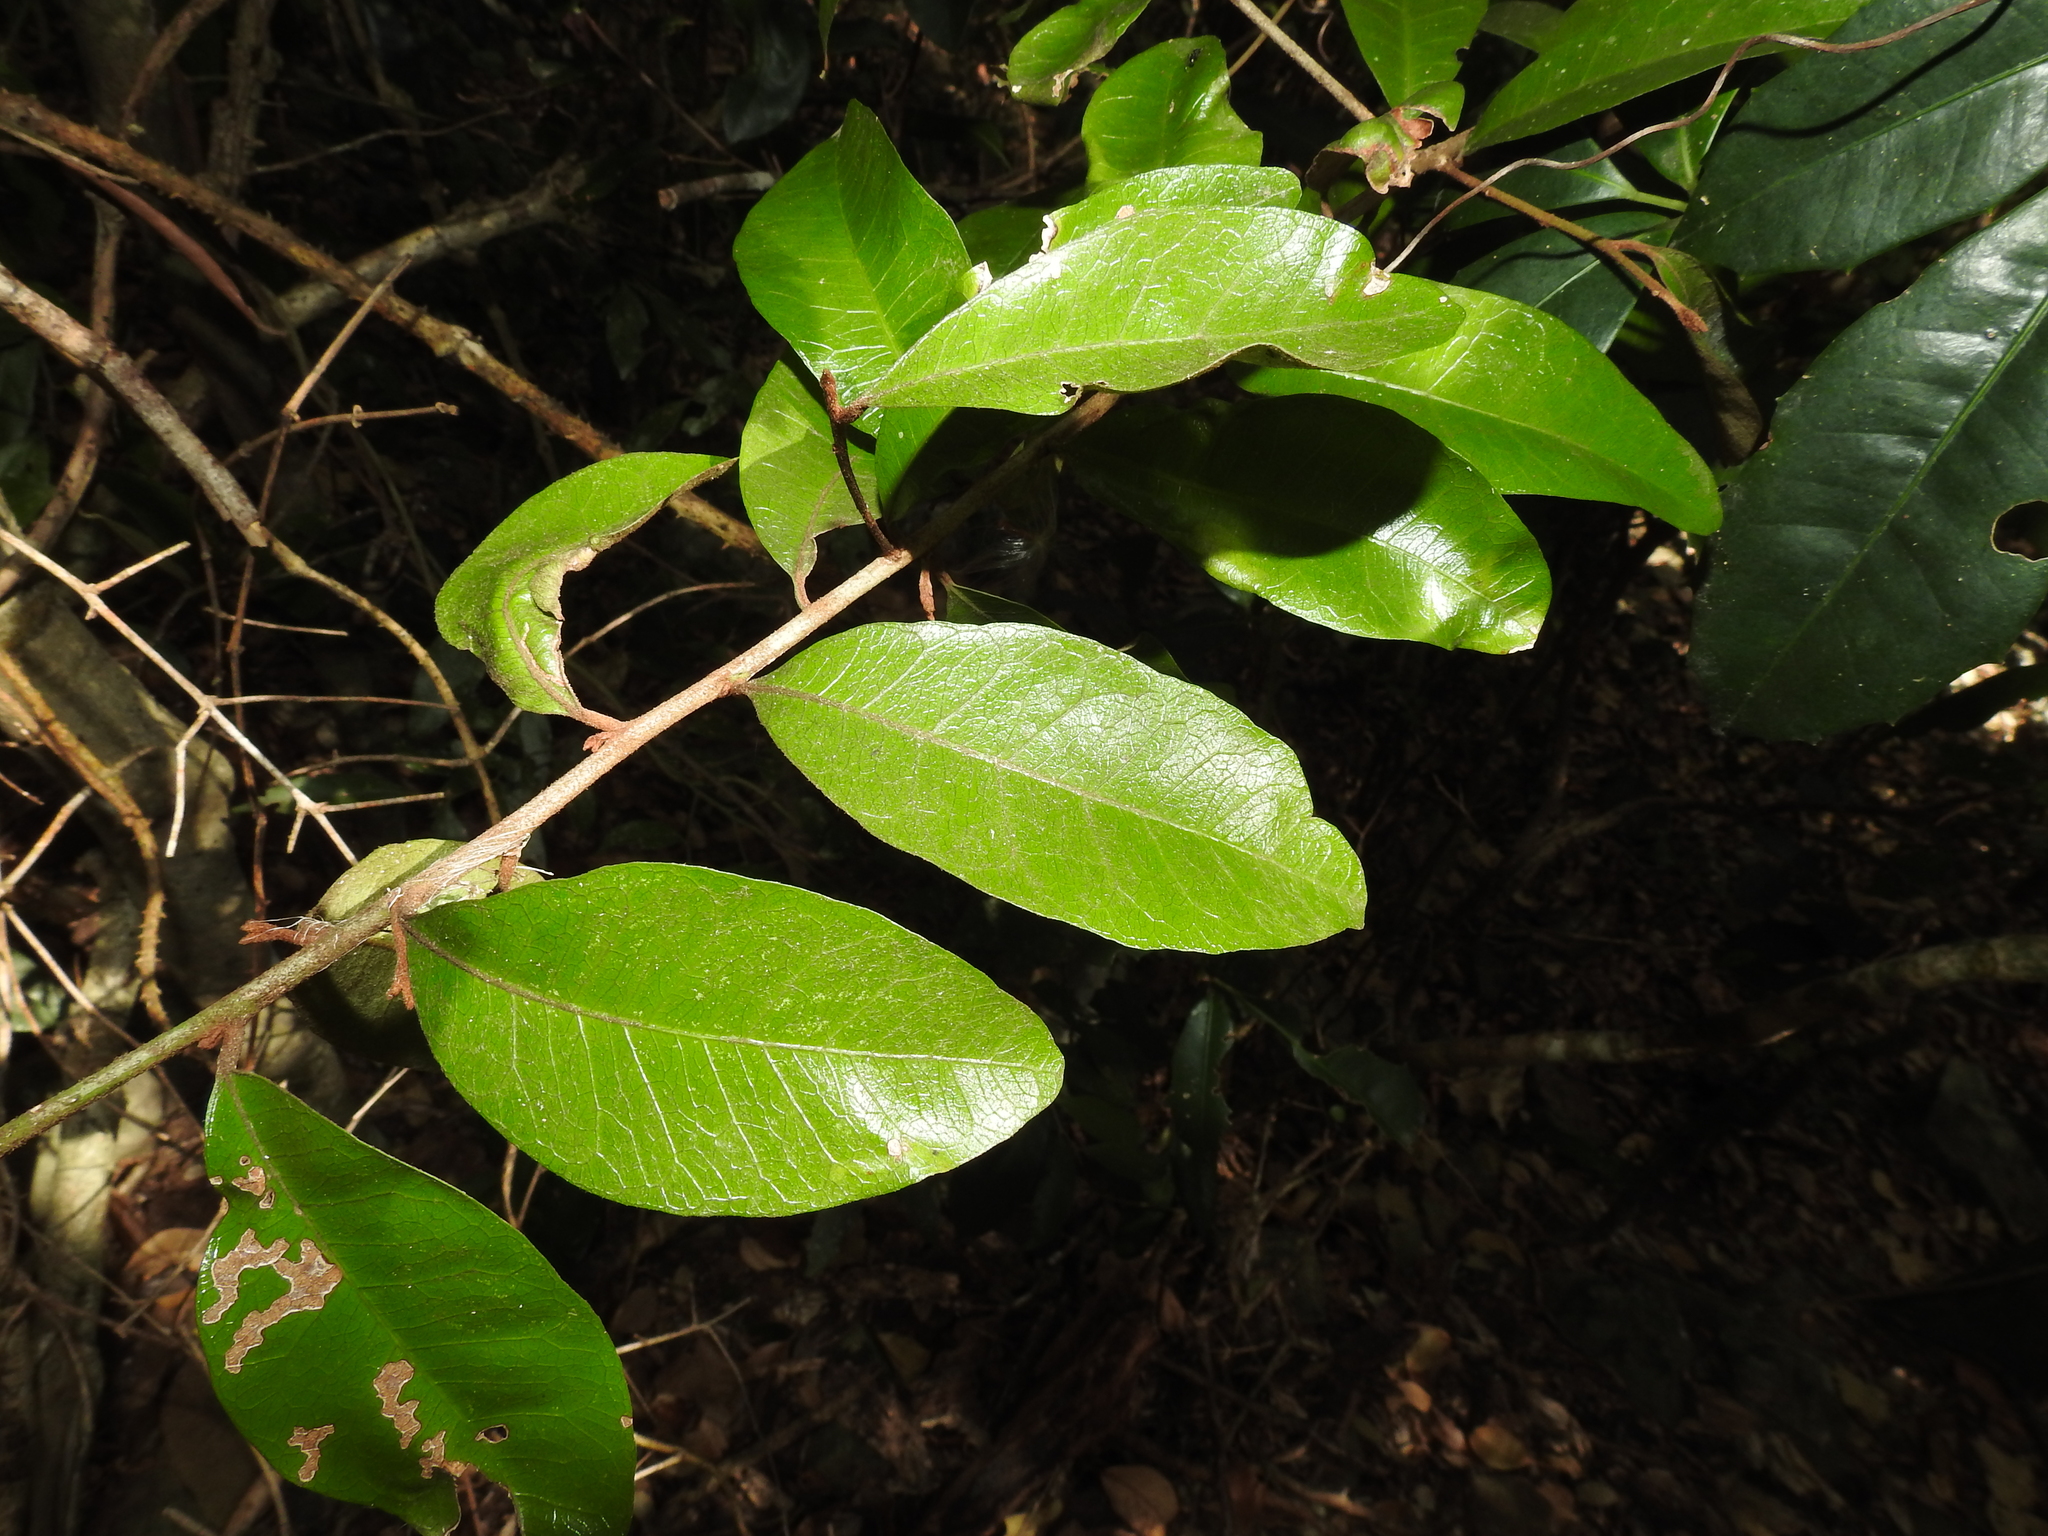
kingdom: Plantae
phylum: Tracheophyta
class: Magnoliopsida
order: Ericales
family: Sapotaceae
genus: Planchonella
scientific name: Planchonella myrsinifolia
